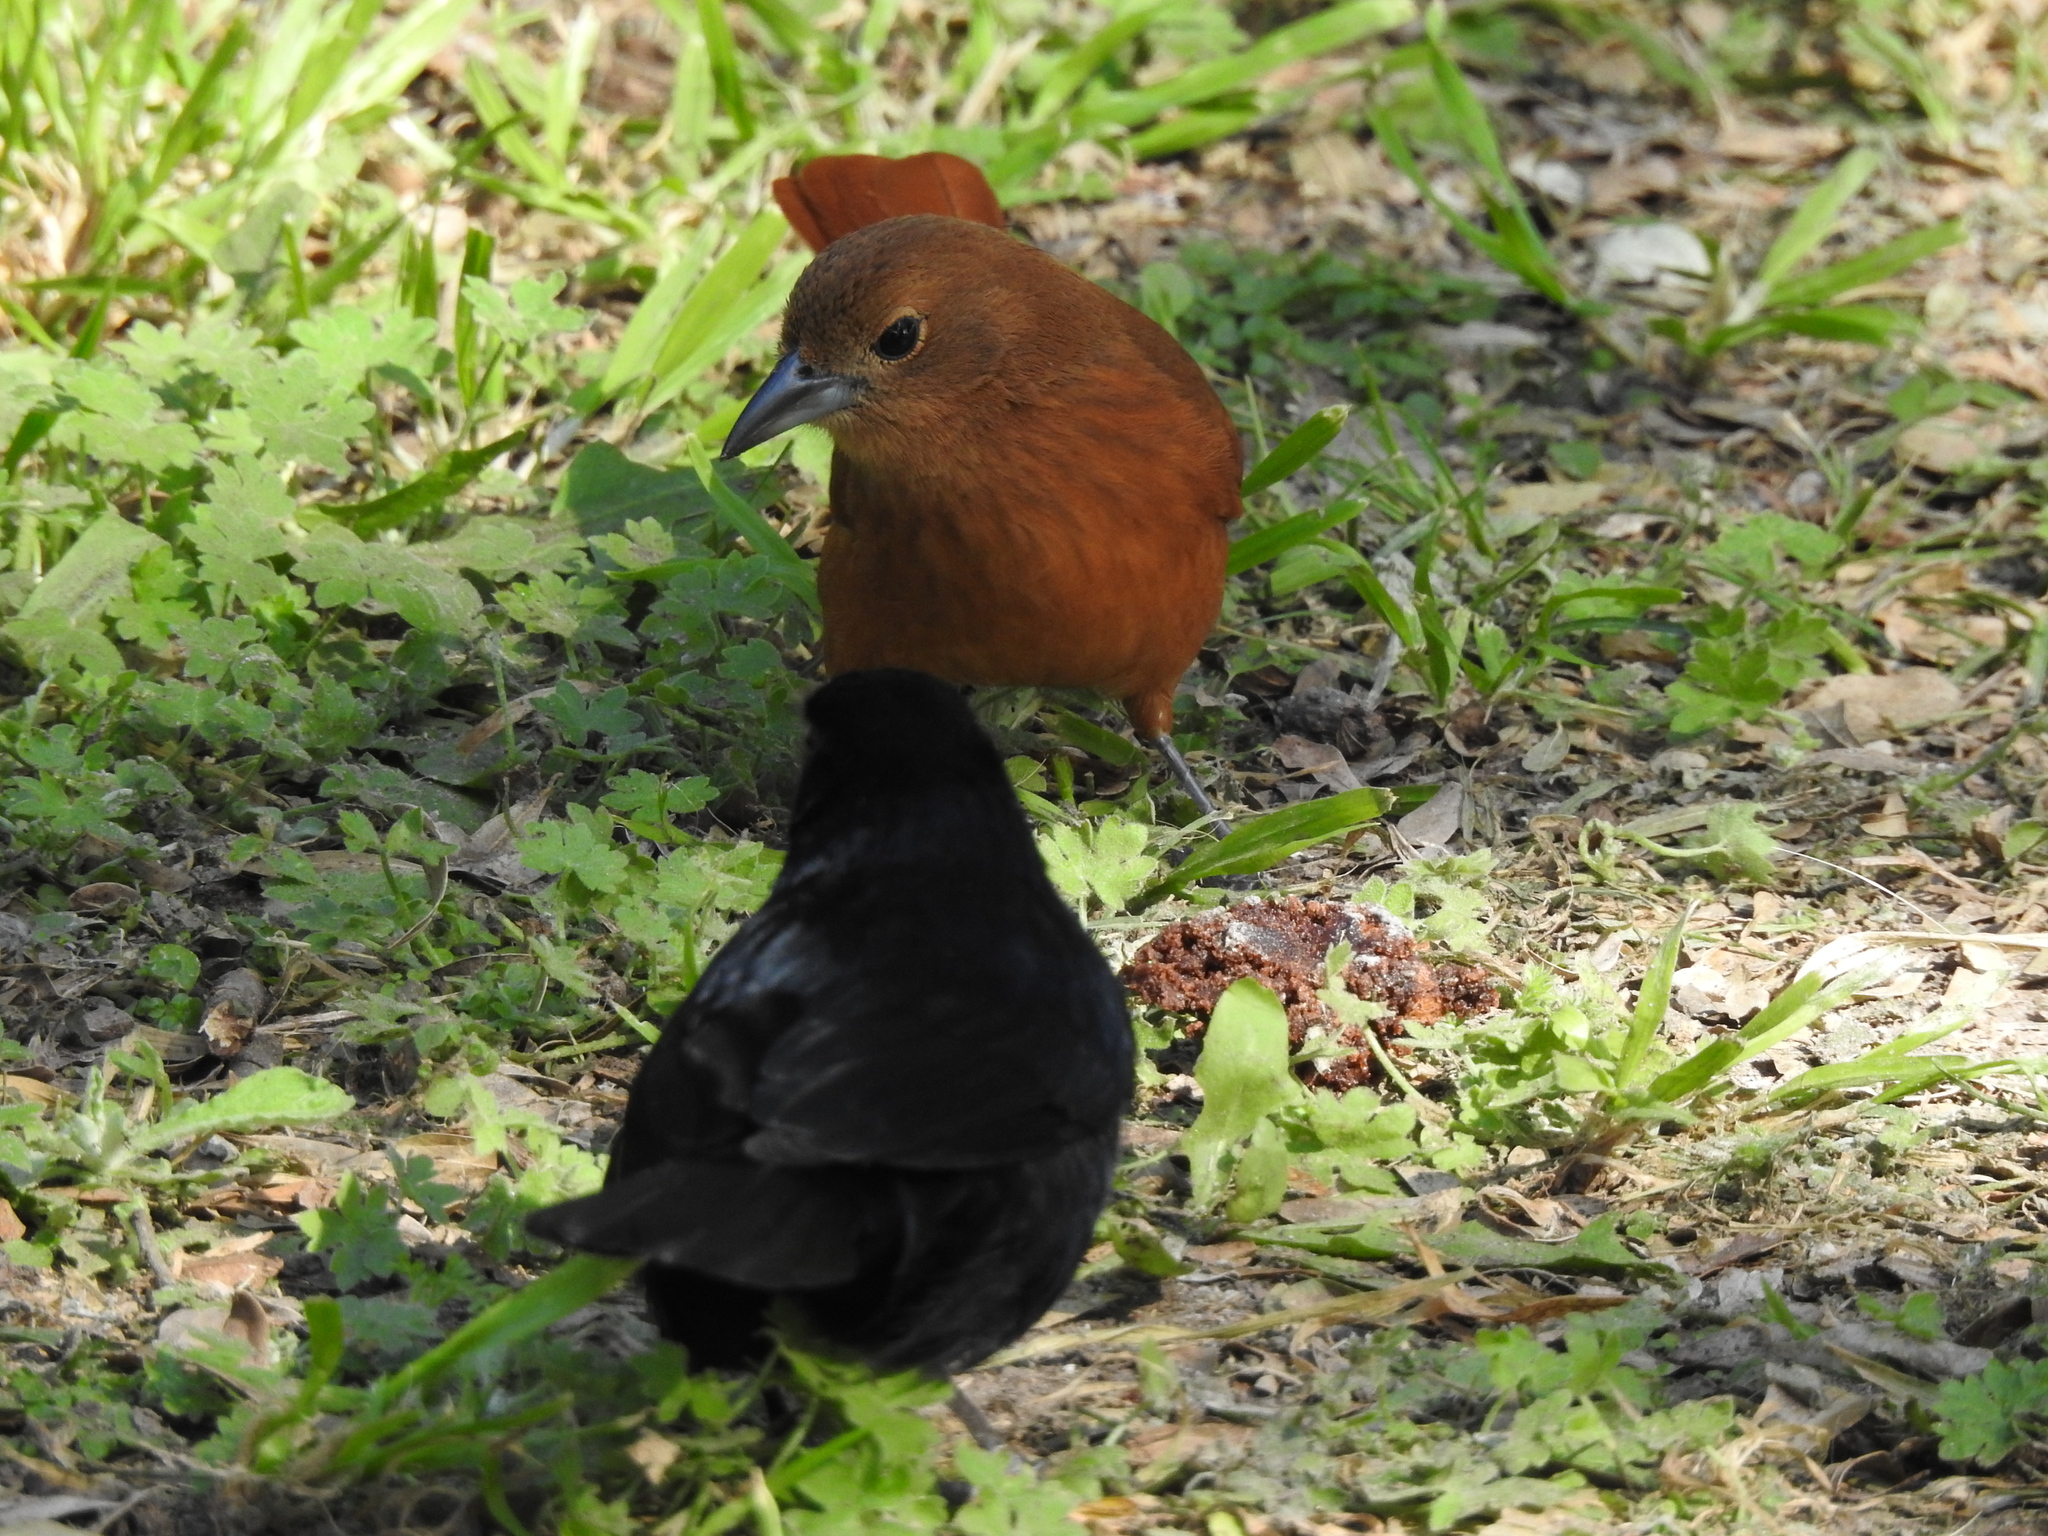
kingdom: Animalia
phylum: Chordata
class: Aves
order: Passeriformes
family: Thraupidae
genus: Tachyphonus
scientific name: Tachyphonus rufus
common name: White-lined tanager
